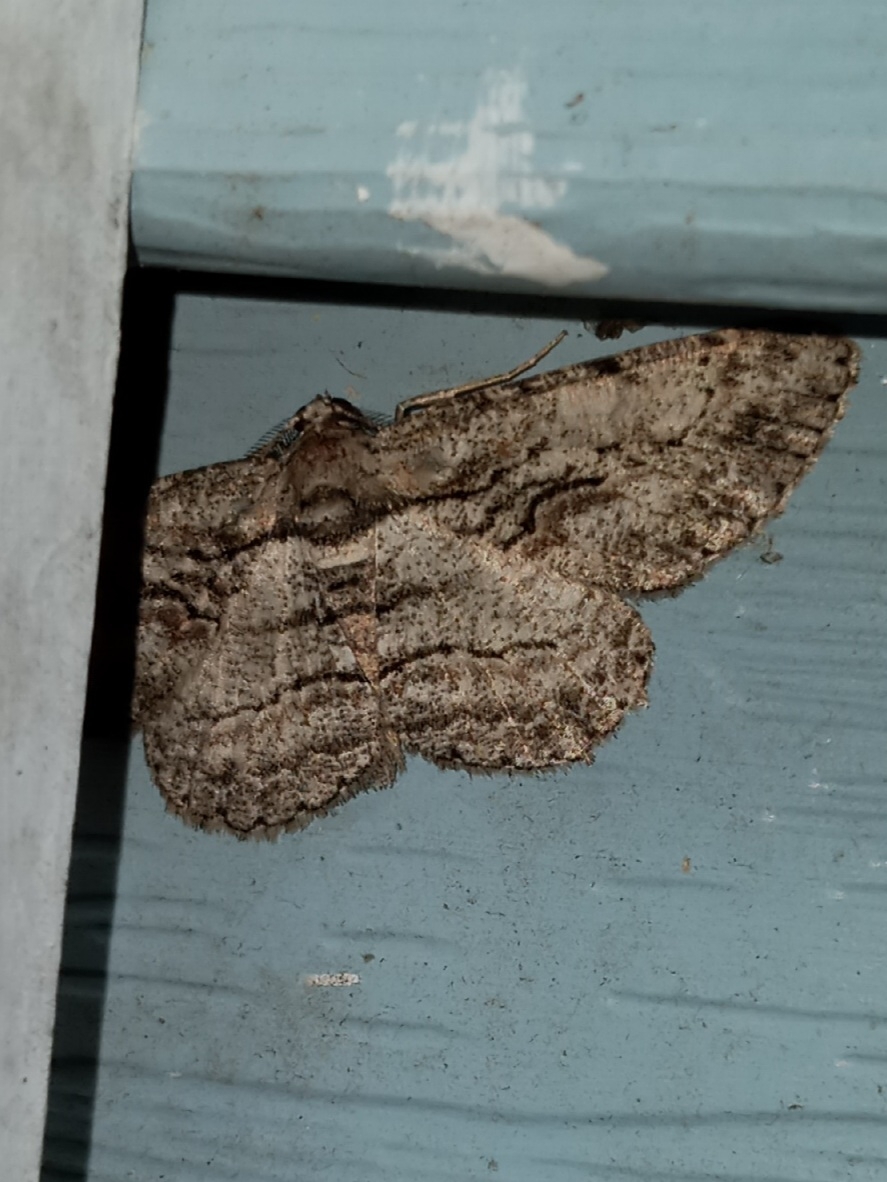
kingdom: Animalia
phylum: Arthropoda
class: Insecta
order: Lepidoptera
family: Geometridae
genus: Anavitrinella
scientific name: Anavitrinella pampinaria
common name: Common gray
